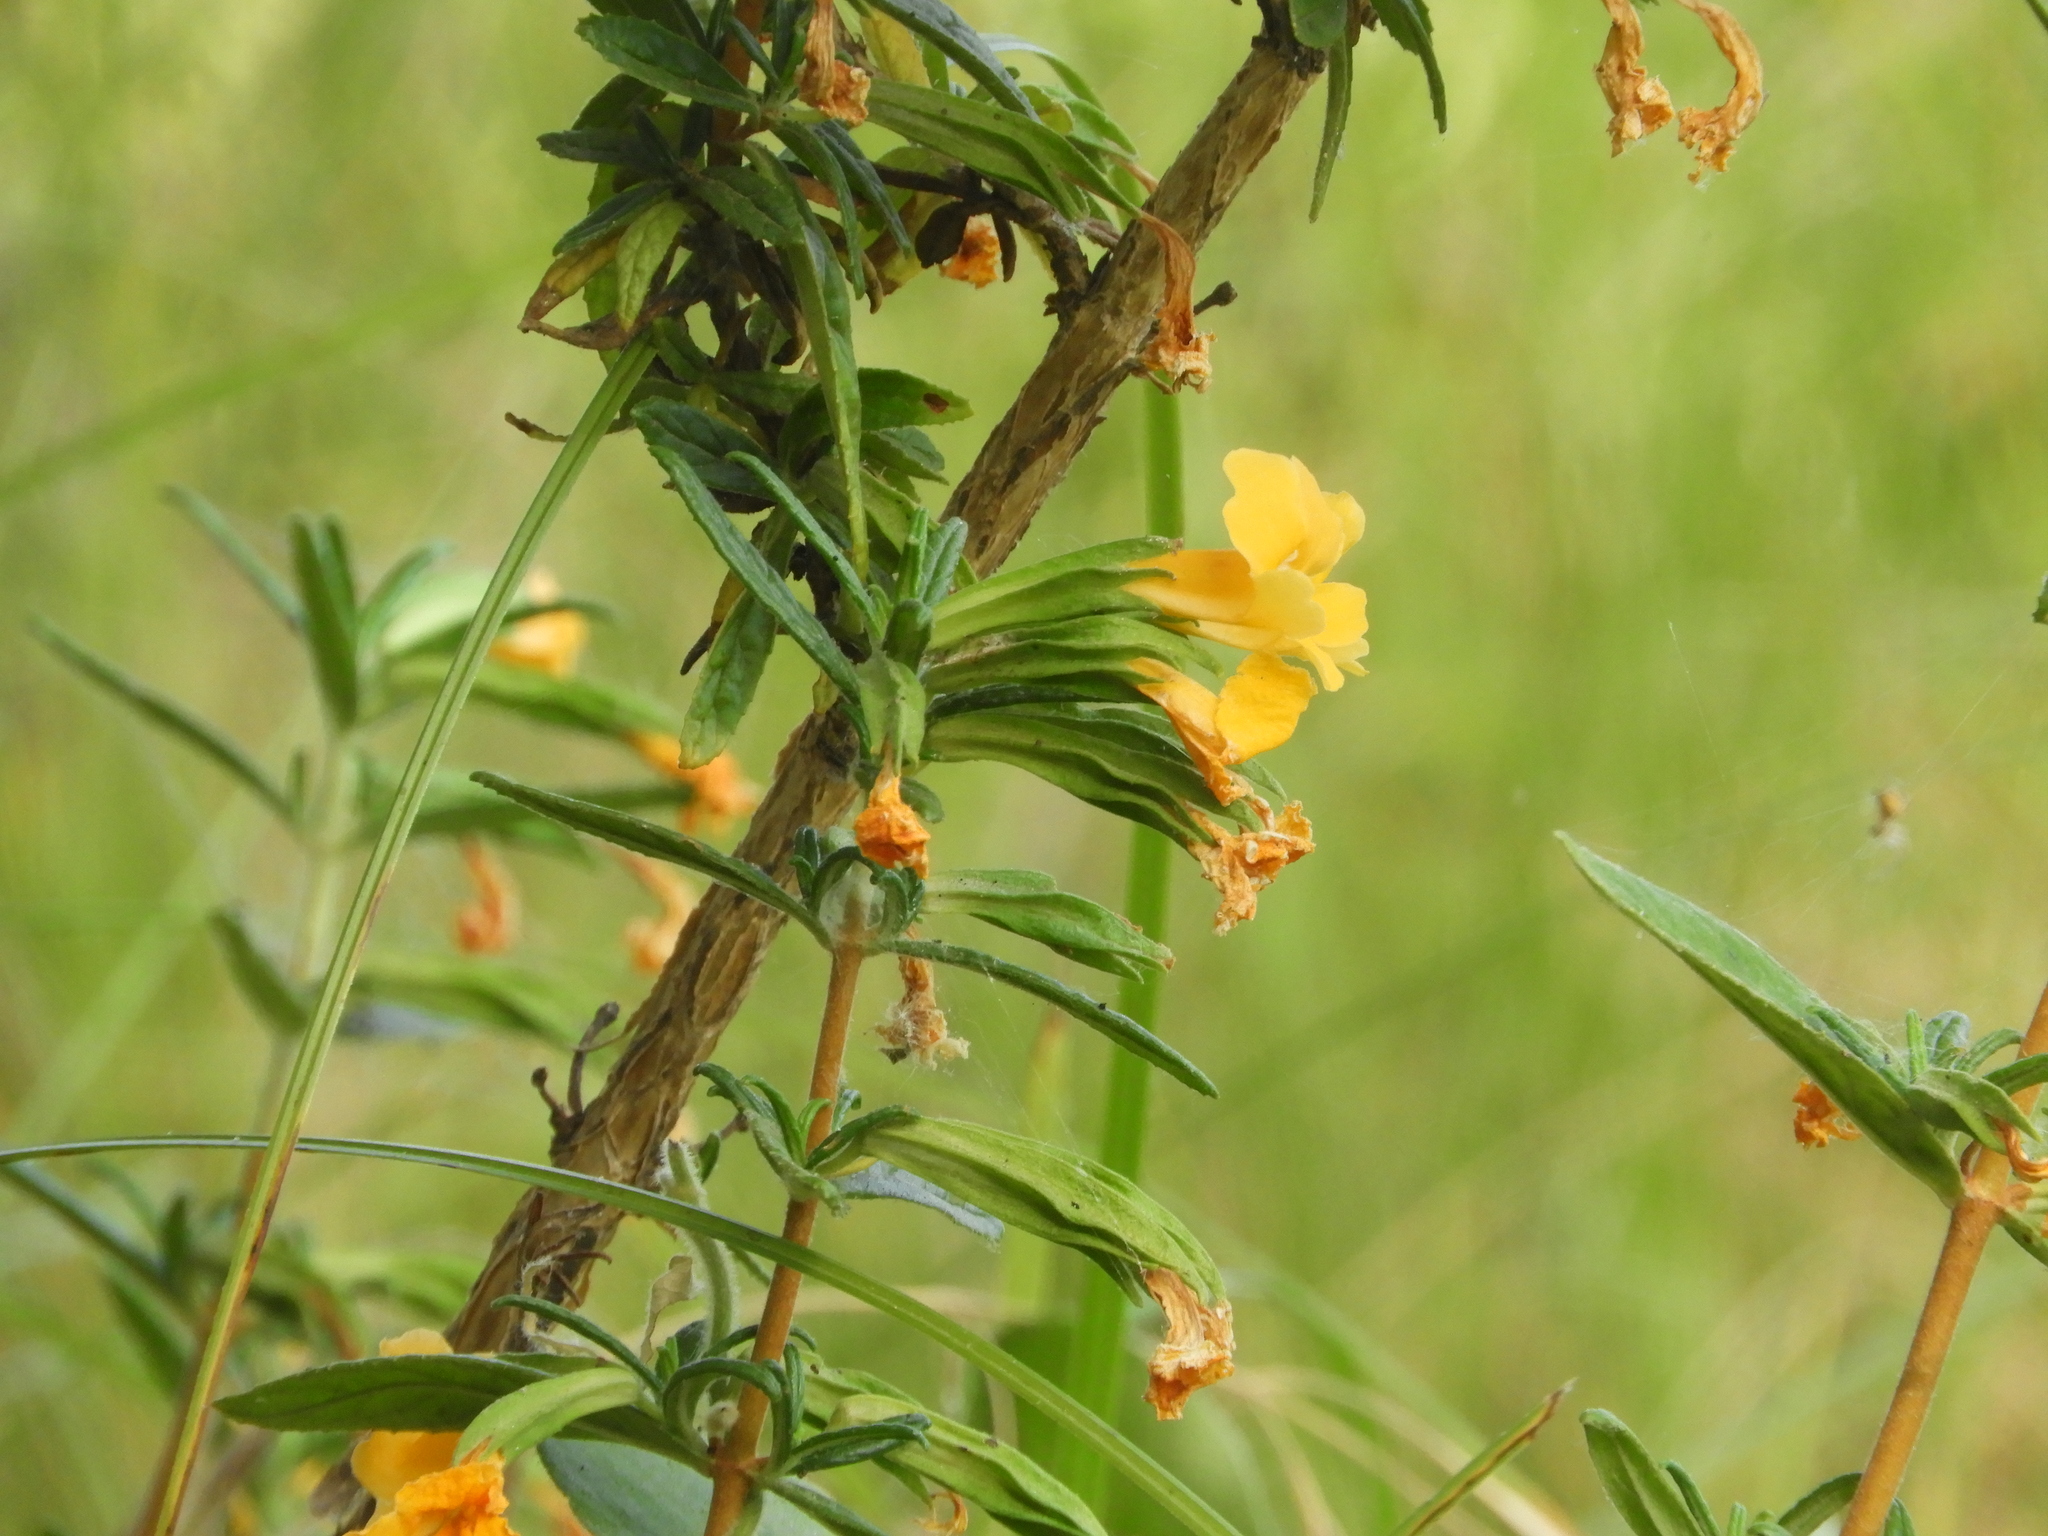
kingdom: Plantae
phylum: Tracheophyta
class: Magnoliopsida
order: Lamiales
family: Phrymaceae
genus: Diplacus
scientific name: Diplacus aurantiacus
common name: Bush monkey-flower
